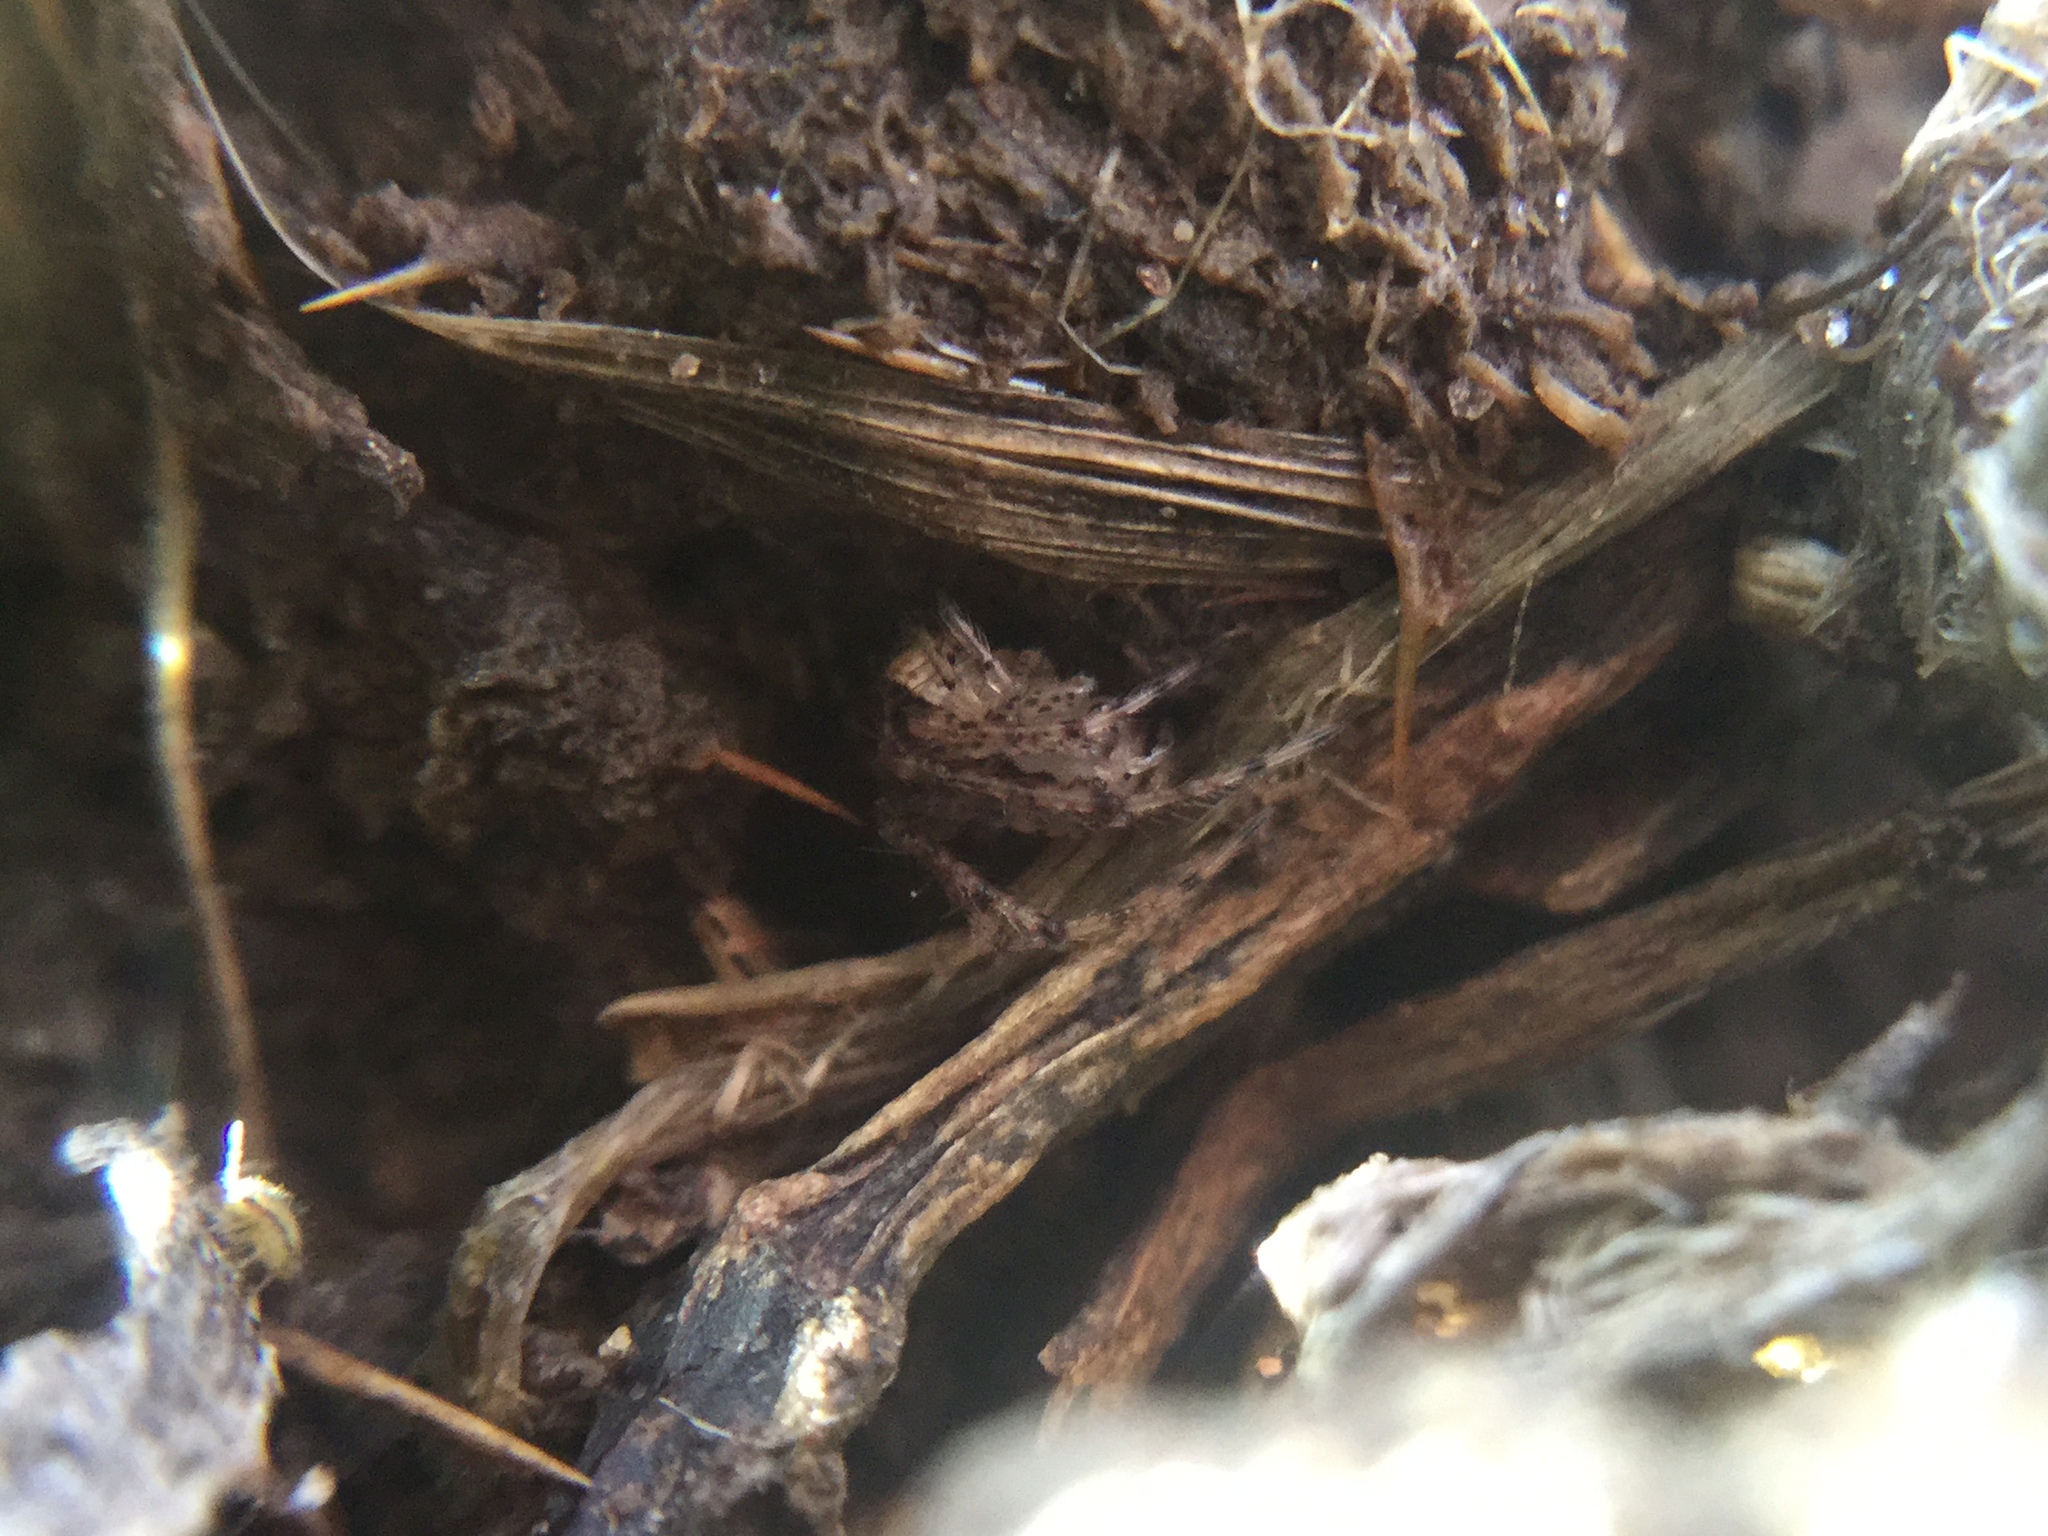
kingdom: Animalia
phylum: Arthropoda
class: Arachnida
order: Araneae
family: Mimetidae
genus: Mimetus
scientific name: Mimetus puritanus
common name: Common pirate spider
